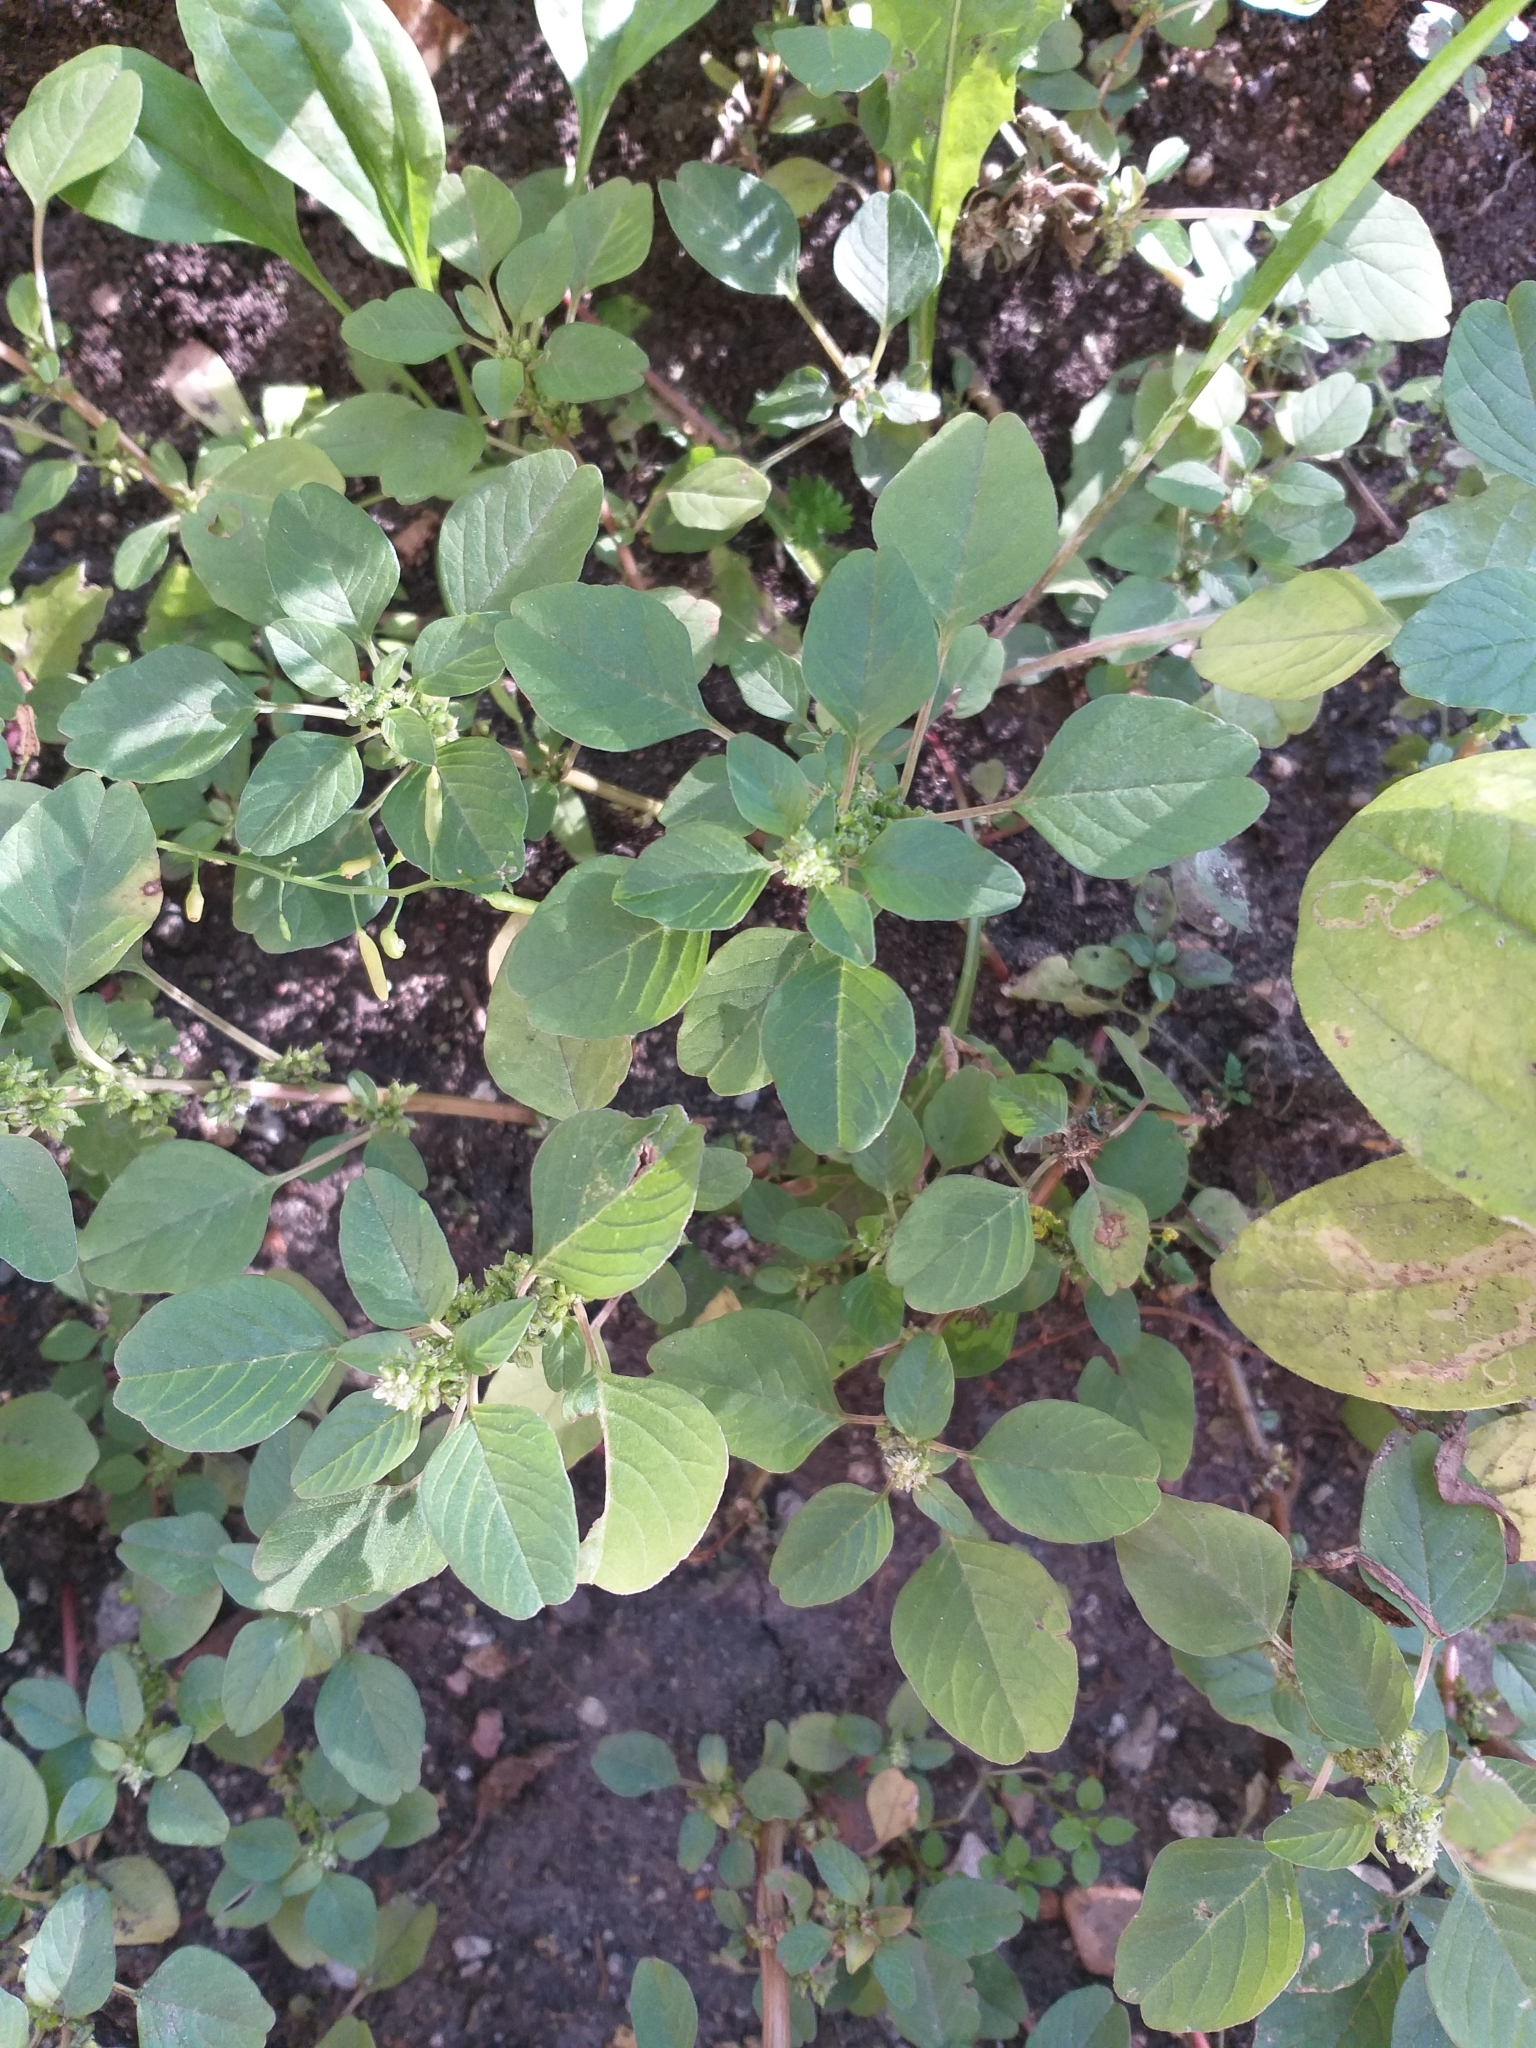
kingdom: Plantae
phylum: Tracheophyta
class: Magnoliopsida
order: Caryophyllales
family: Amaranthaceae
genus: Amaranthus
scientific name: Amaranthus blitum
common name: Purple amaranth
